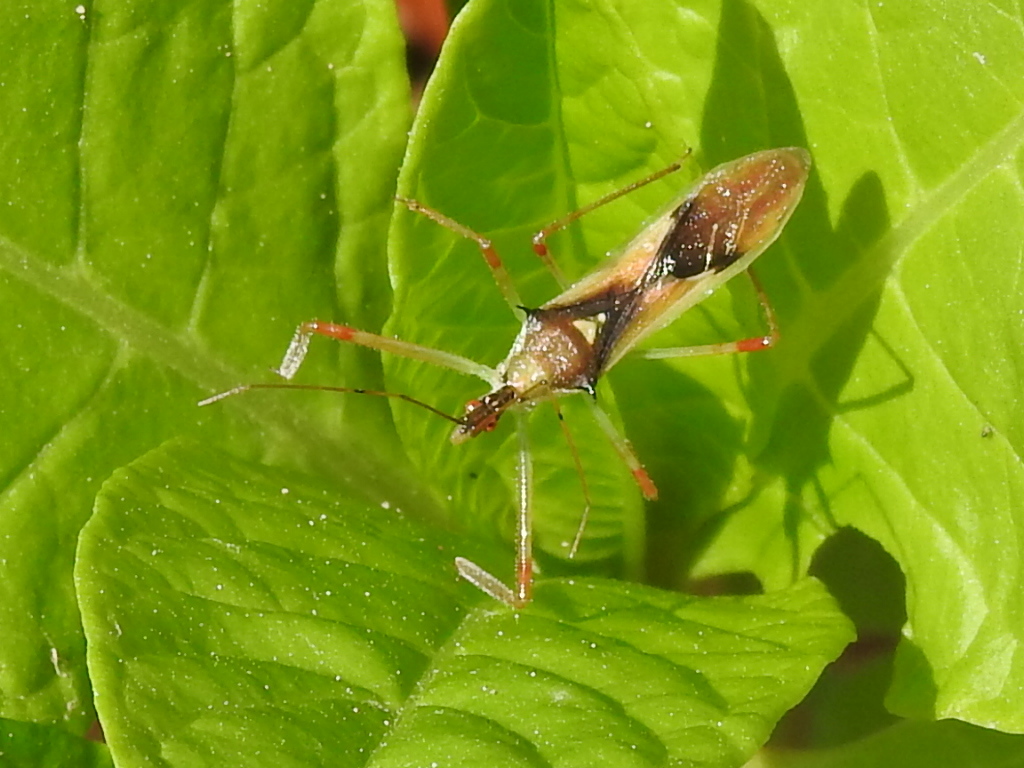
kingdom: Animalia
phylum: Arthropoda
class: Insecta
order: Hemiptera
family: Reduviidae
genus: Zelus
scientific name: Zelus luridus
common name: Pale green assassin bug
